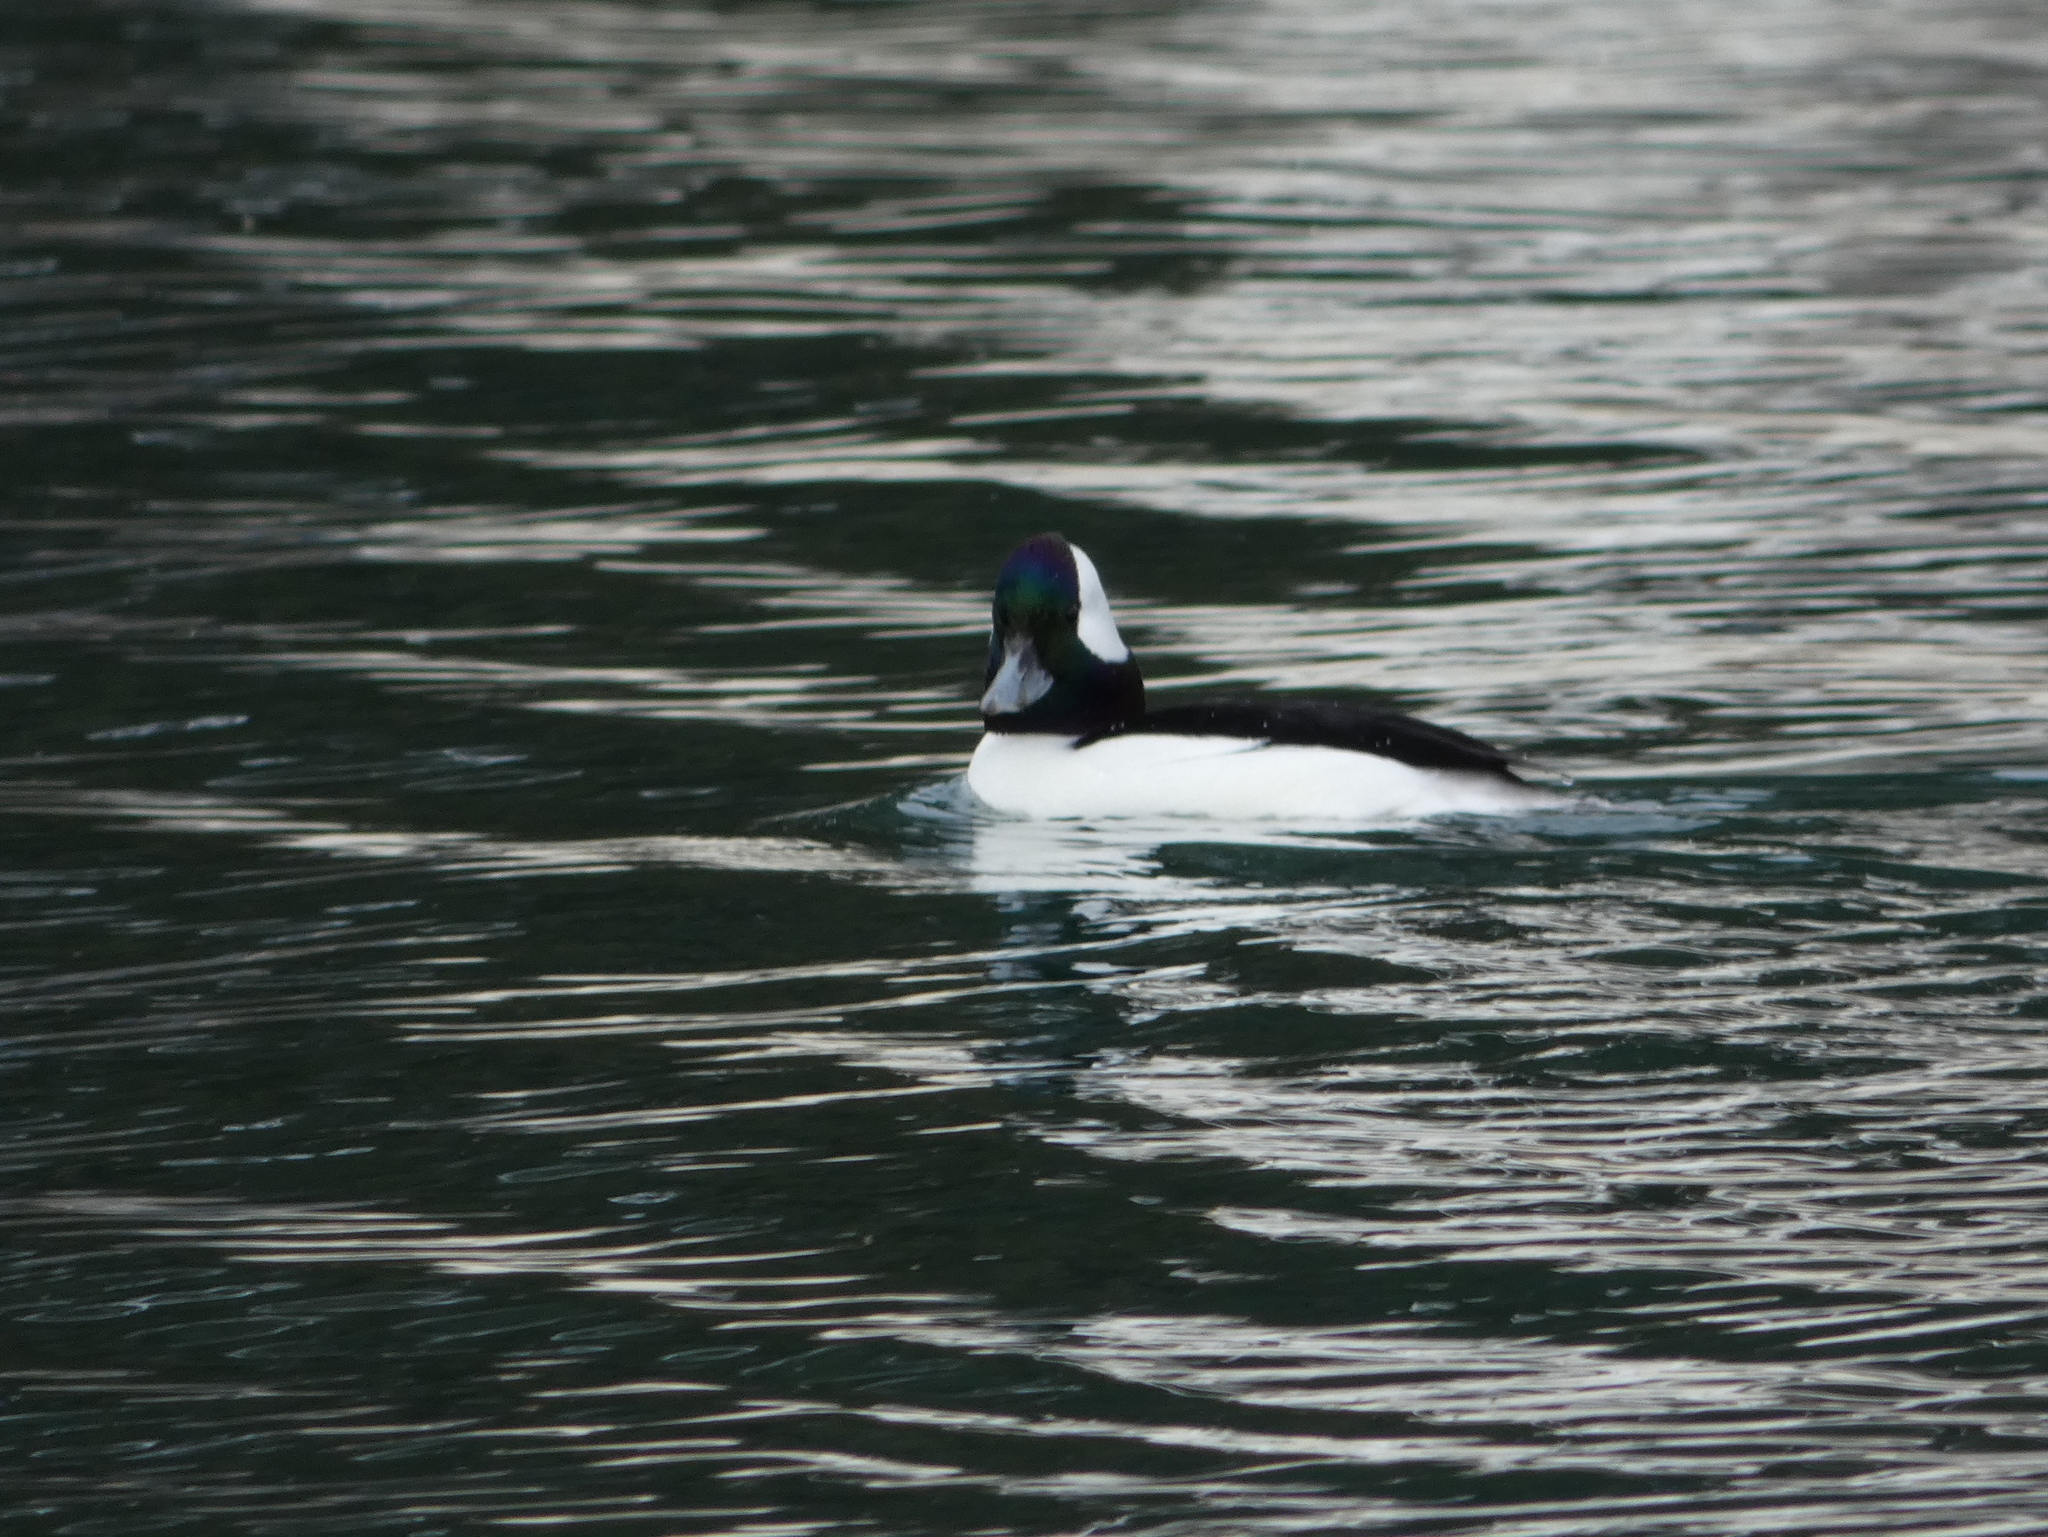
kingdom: Animalia
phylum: Chordata
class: Aves
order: Anseriformes
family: Anatidae
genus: Bucephala
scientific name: Bucephala albeola
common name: Bufflehead
